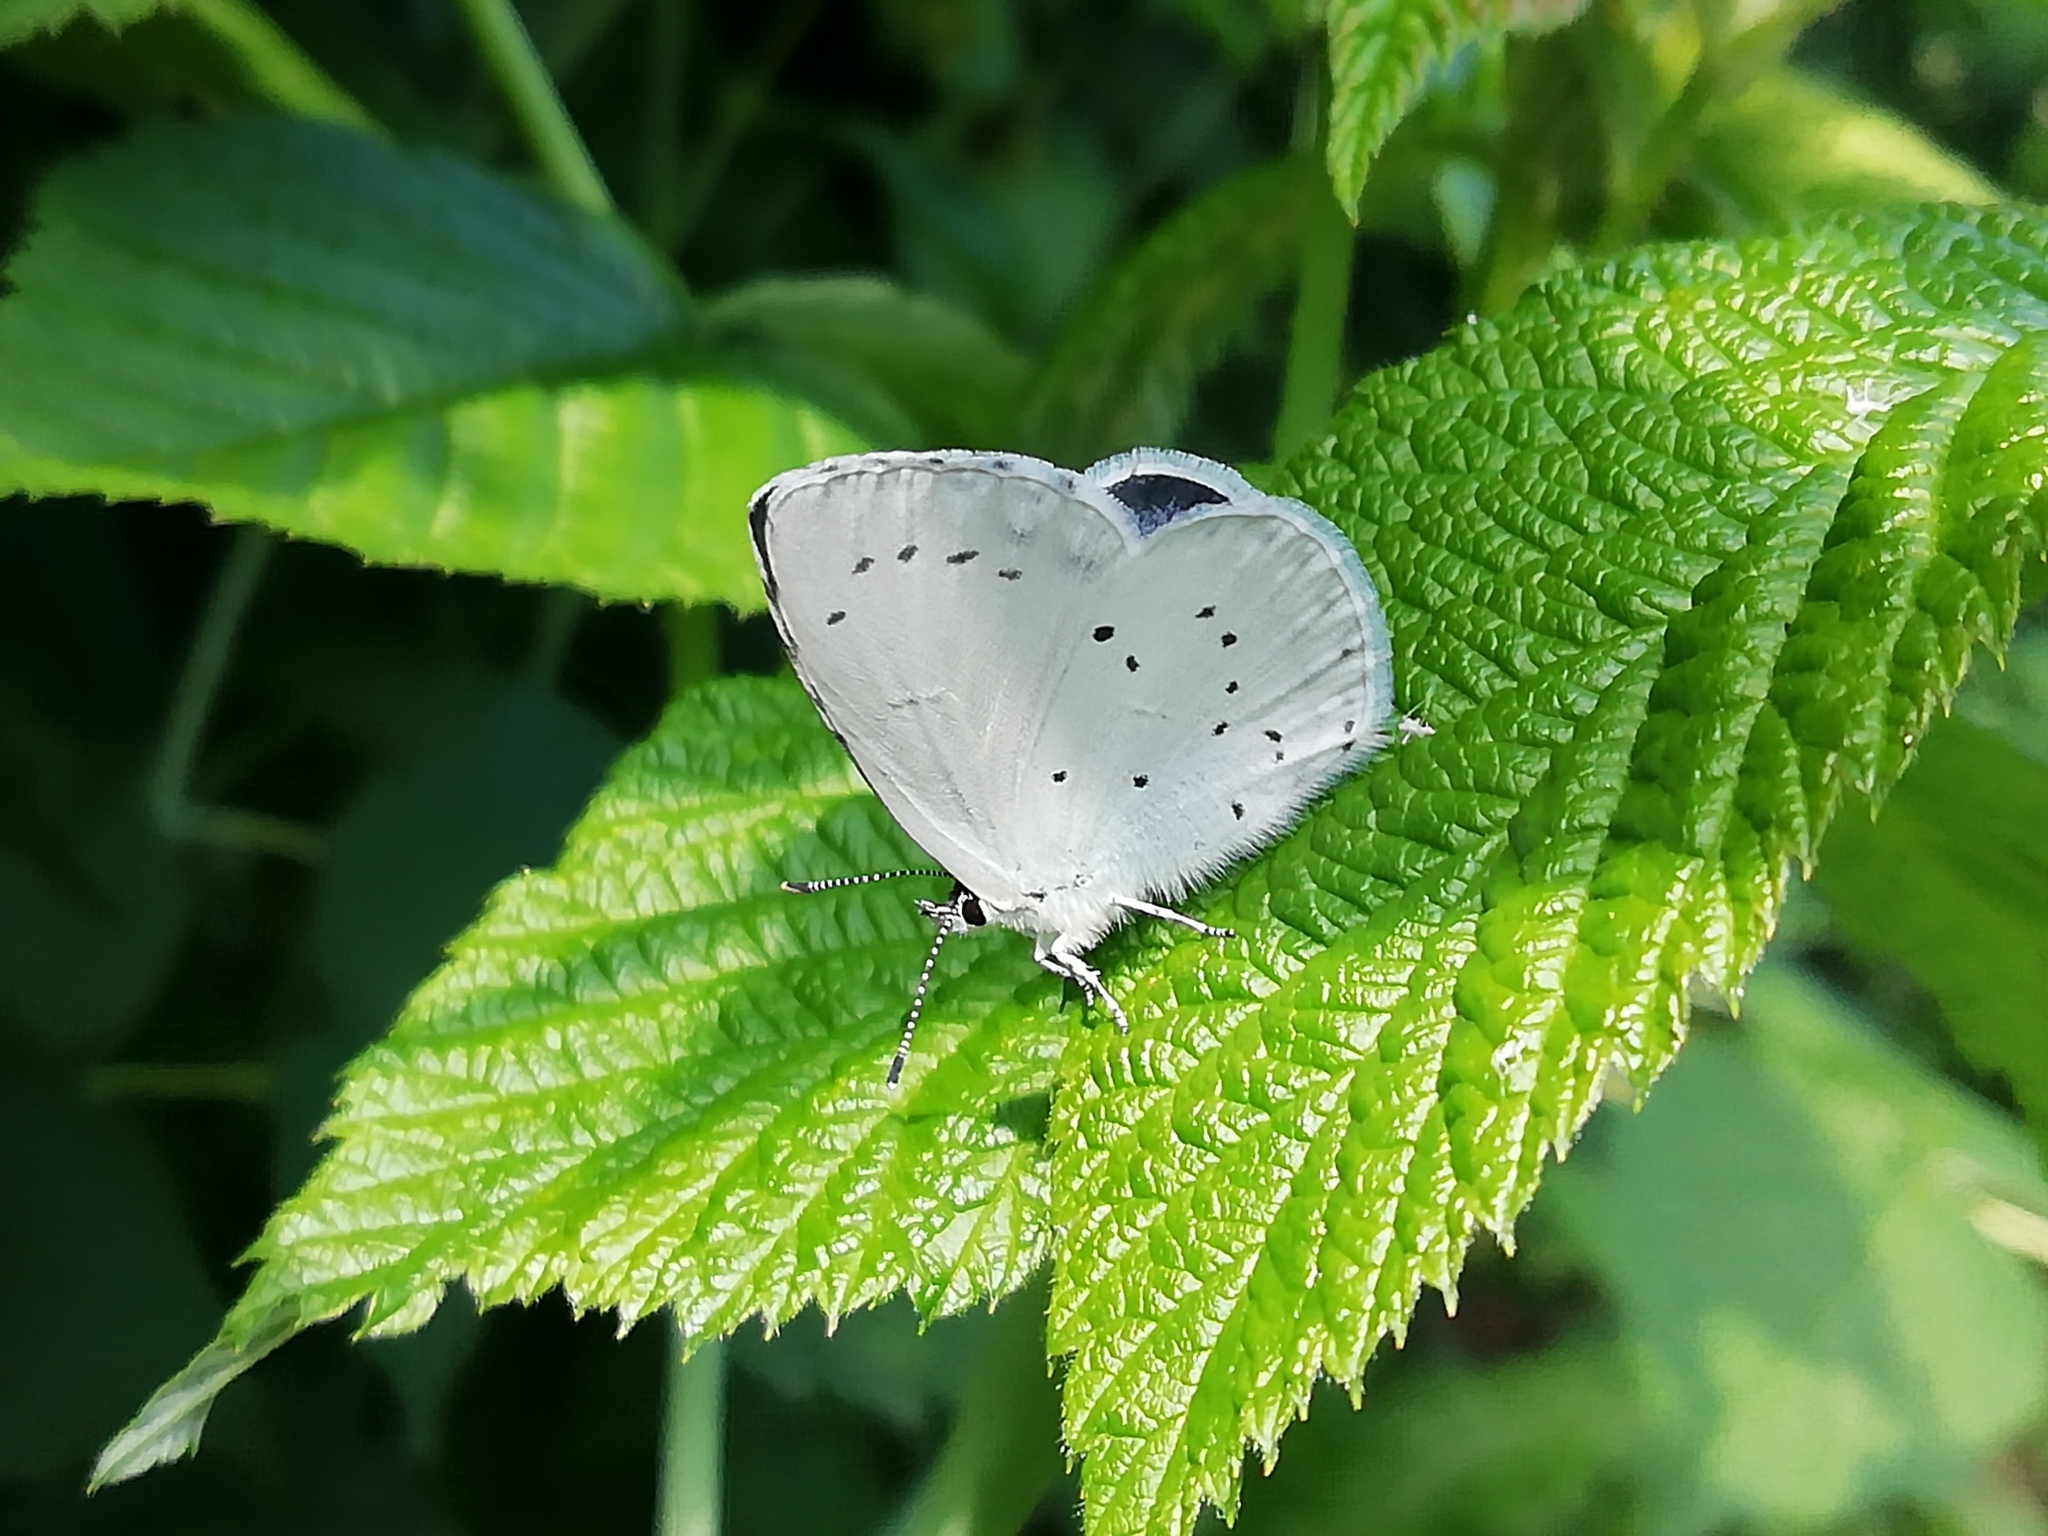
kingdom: Animalia
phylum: Arthropoda
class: Insecta
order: Lepidoptera
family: Lycaenidae
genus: Celastrina
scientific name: Celastrina argiolus
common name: Holly blue
